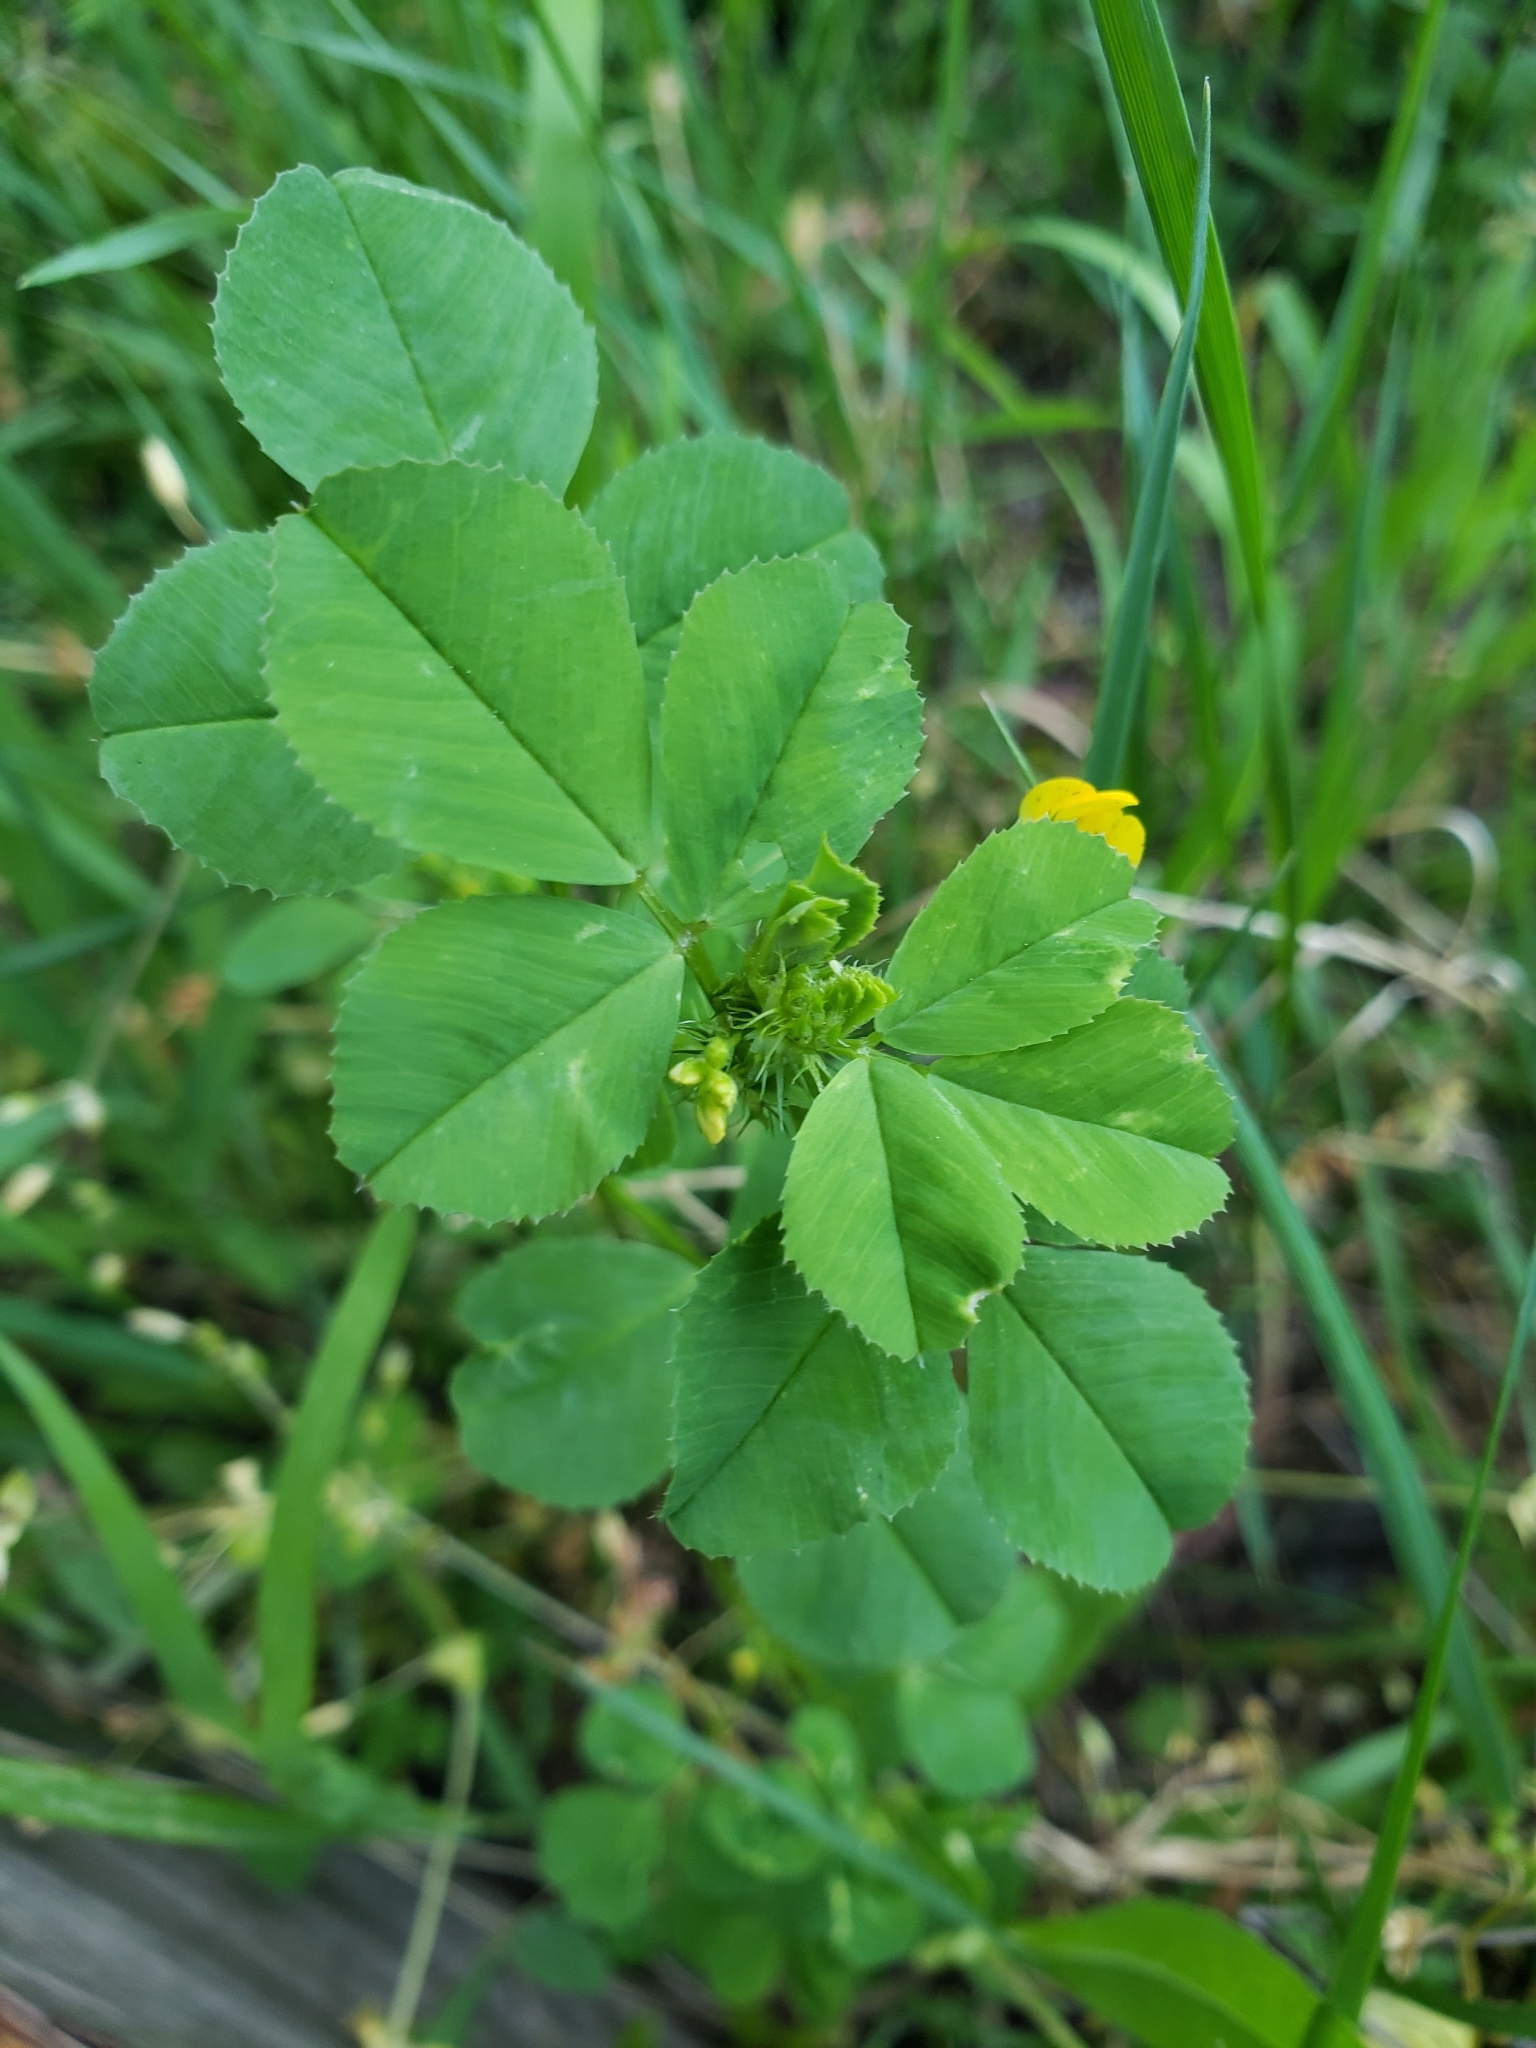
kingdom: Plantae
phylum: Tracheophyta
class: Magnoliopsida
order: Fabales
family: Fabaceae
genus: Medicago
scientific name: Medicago polymorpha
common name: Burclover
